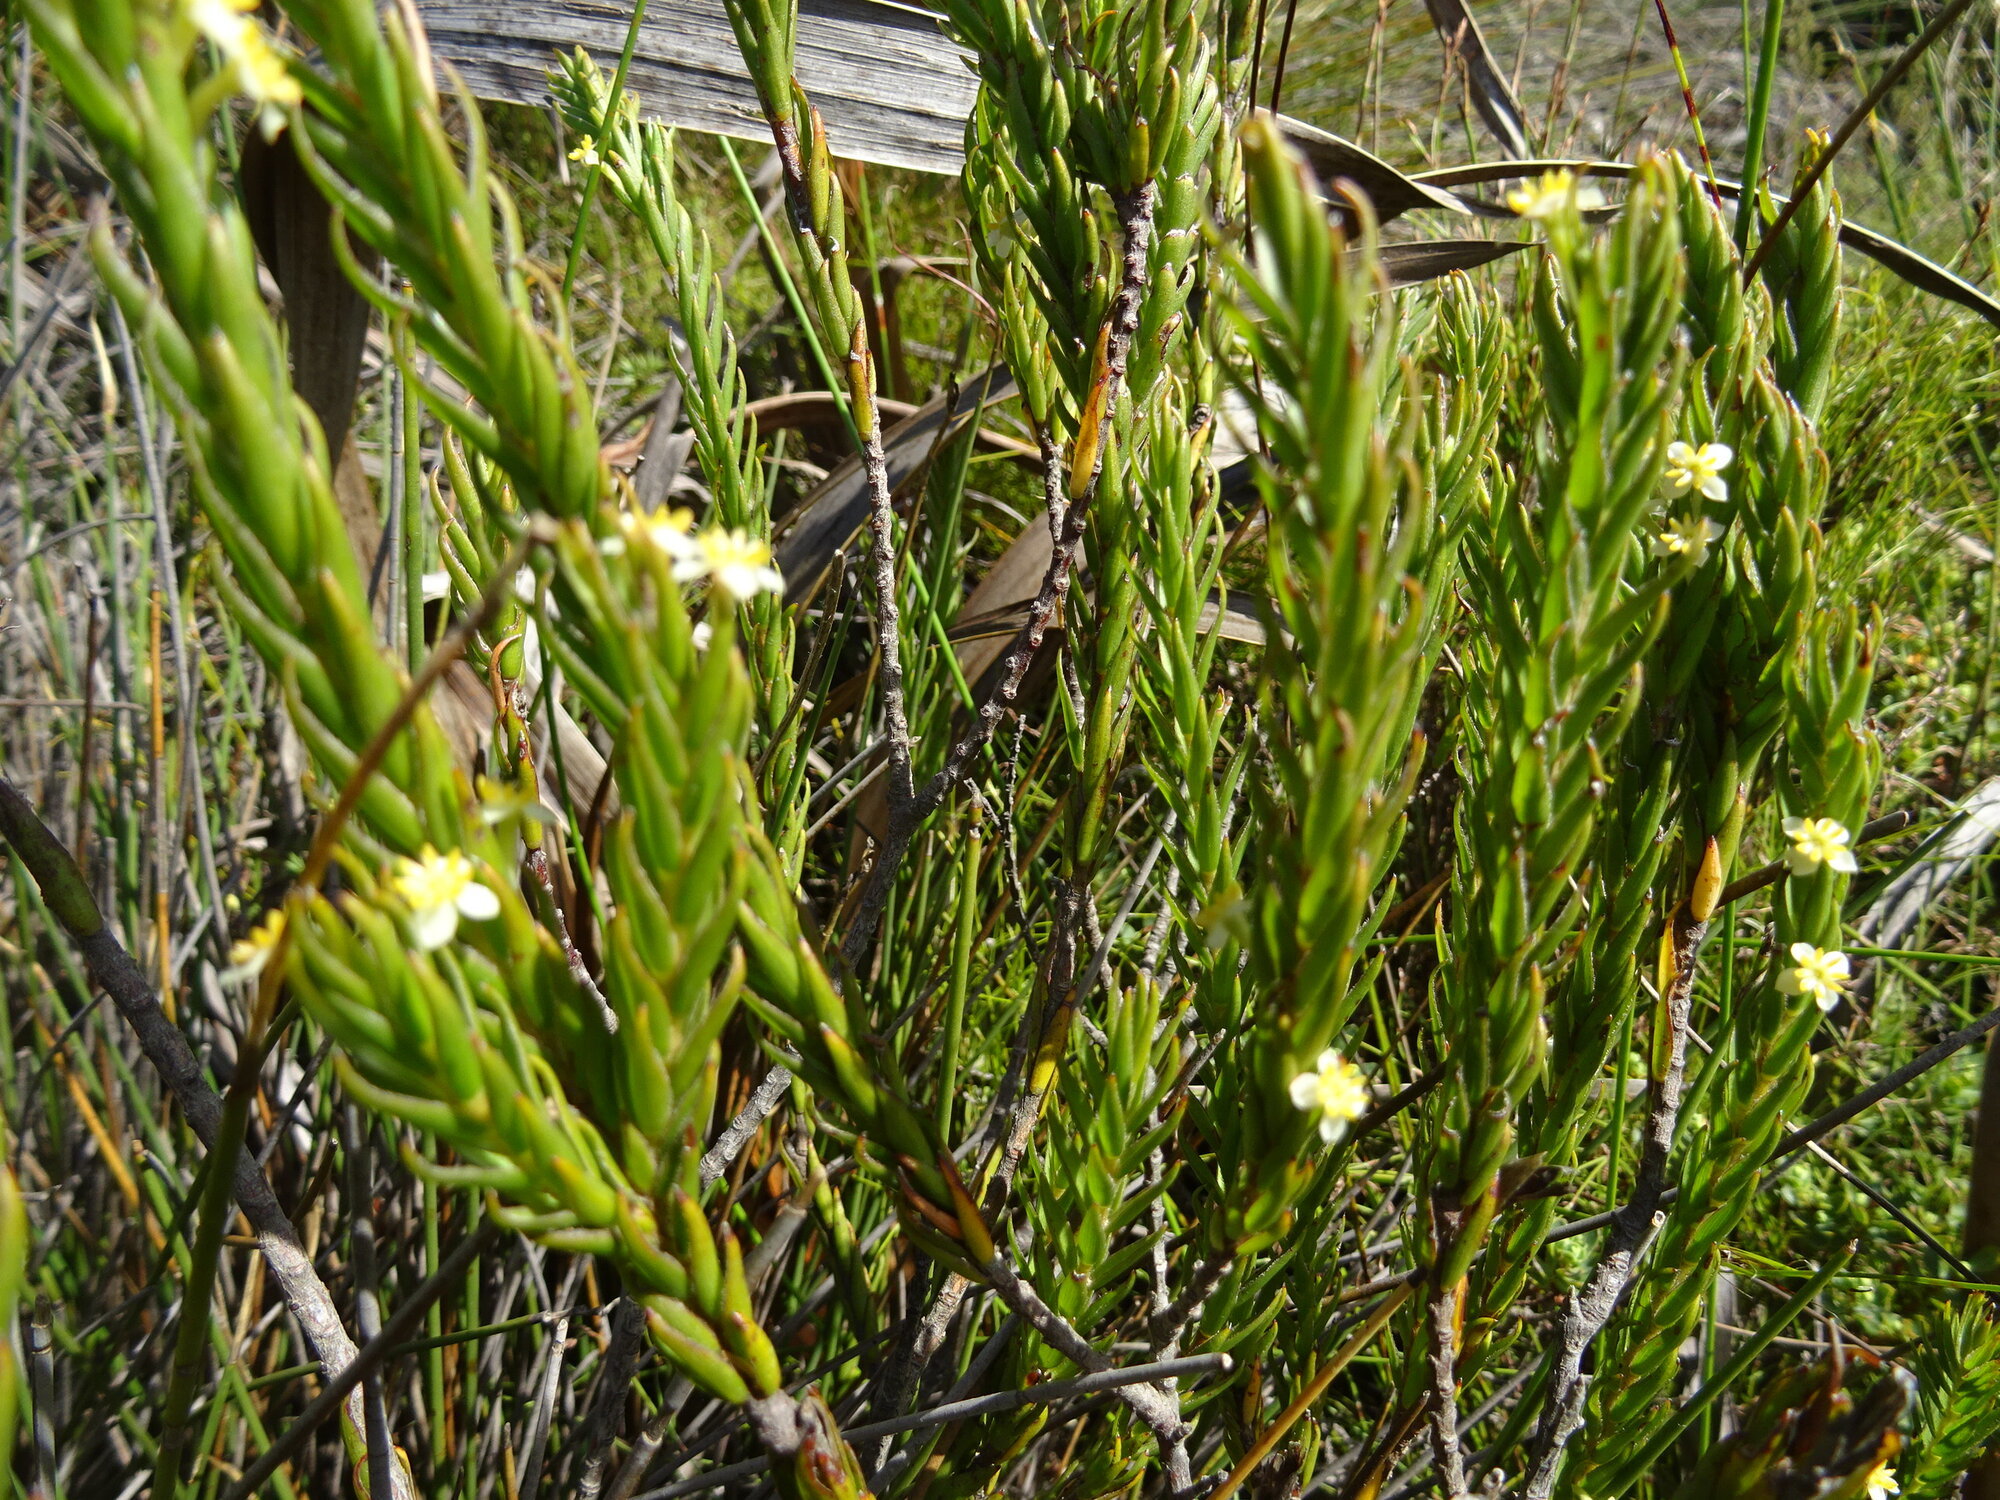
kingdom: Plantae
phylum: Tracheophyta
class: Magnoliopsida
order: Malvales
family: Thymelaeaceae
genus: Struthiola
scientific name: Struthiola ciliata
